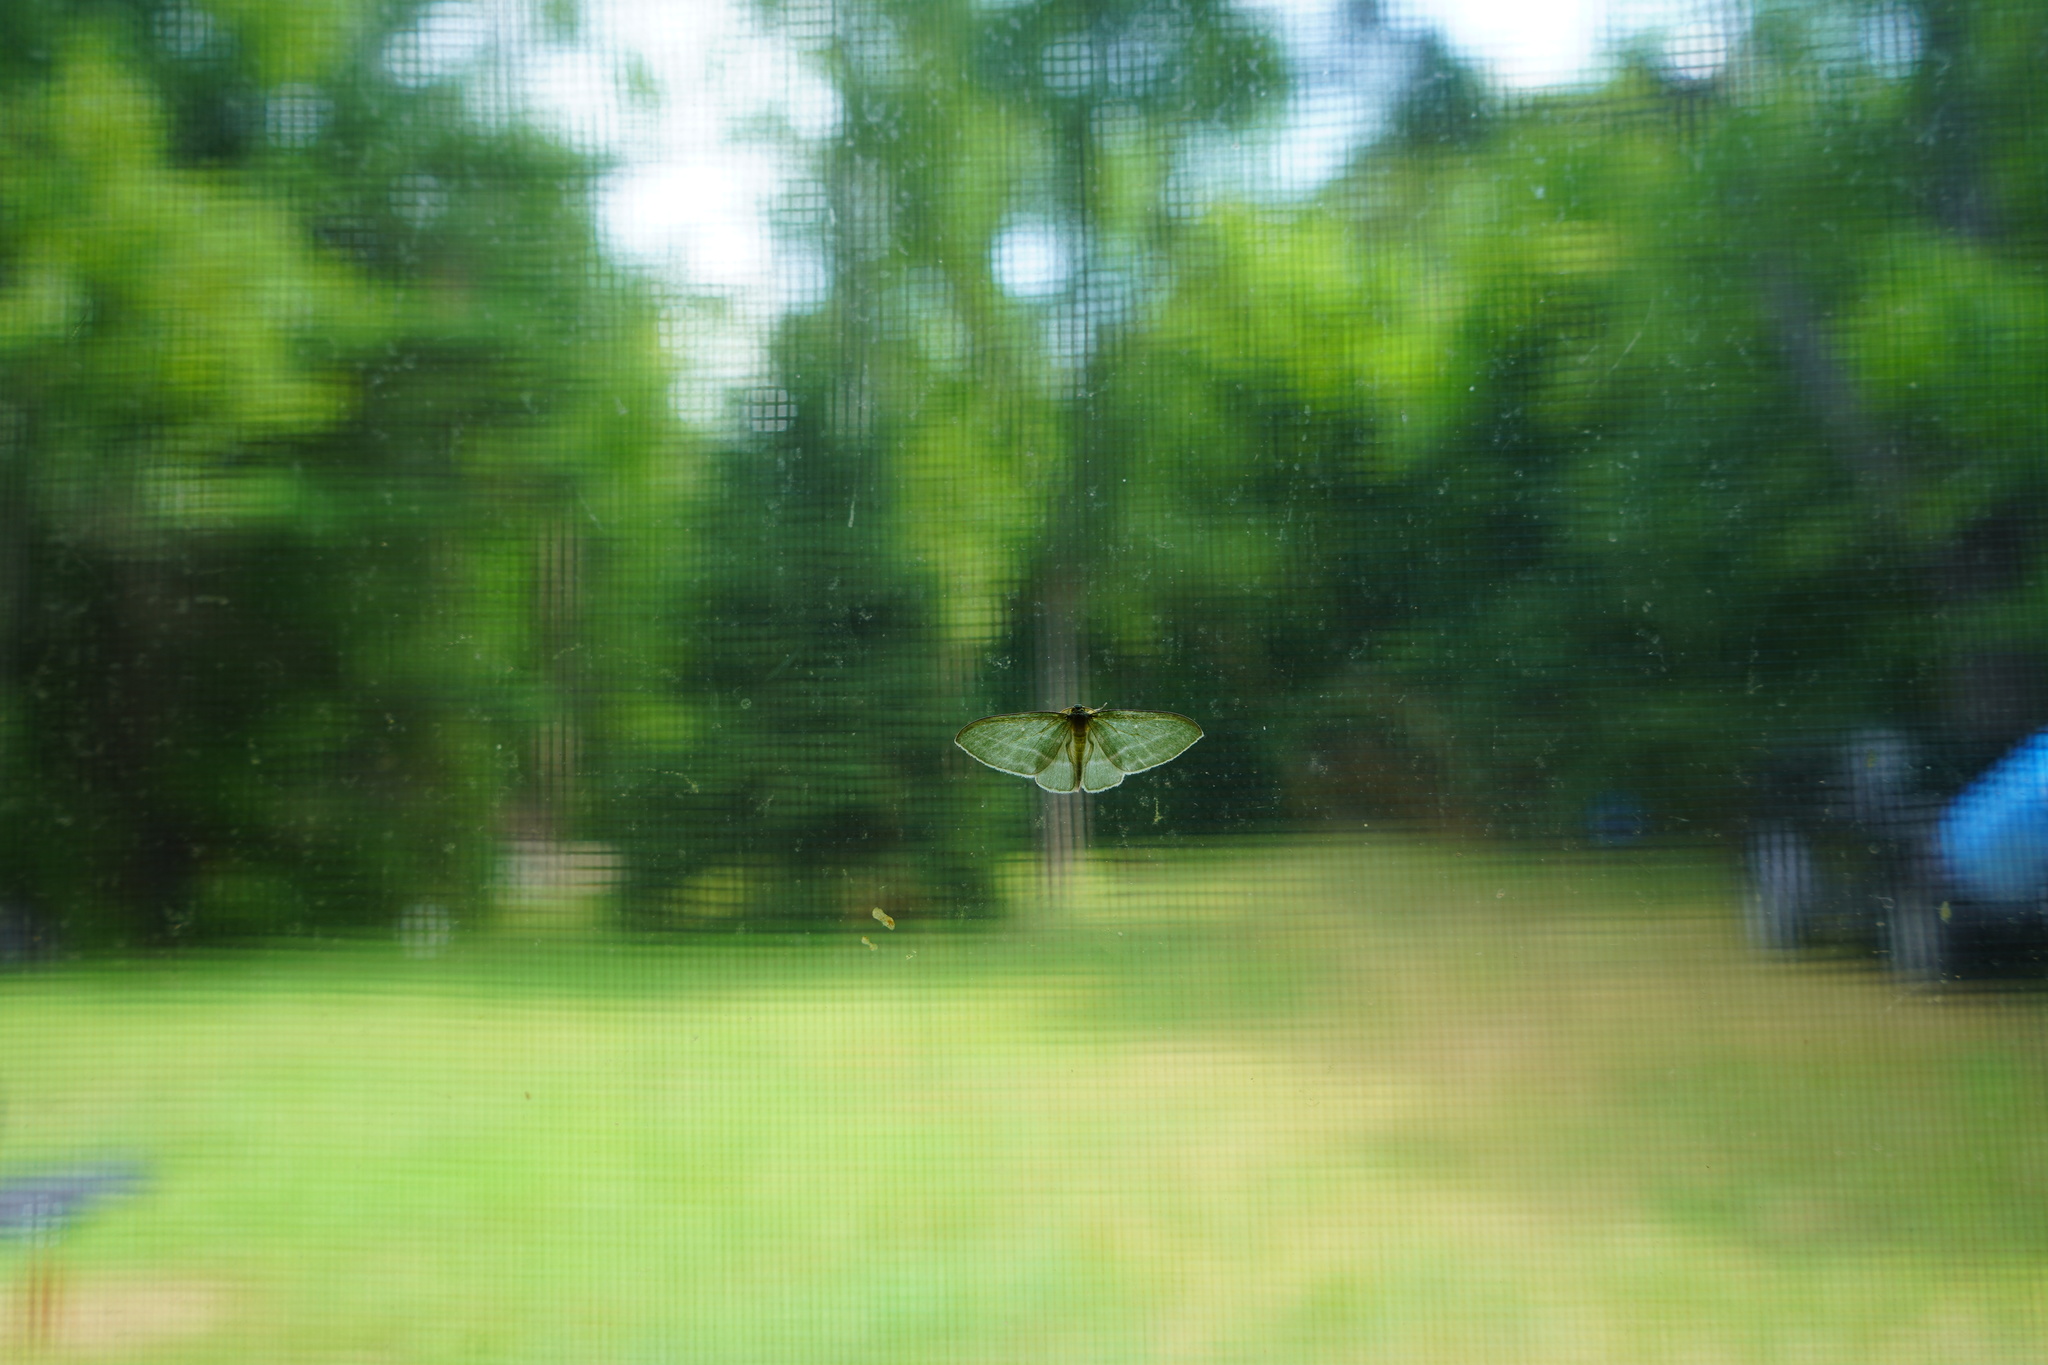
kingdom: Animalia
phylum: Arthropoda
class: Insecta
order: Lepidoptera
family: Geometridae
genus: Dyspteris
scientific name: Dyspteris abortivaria
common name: Bad-wing
